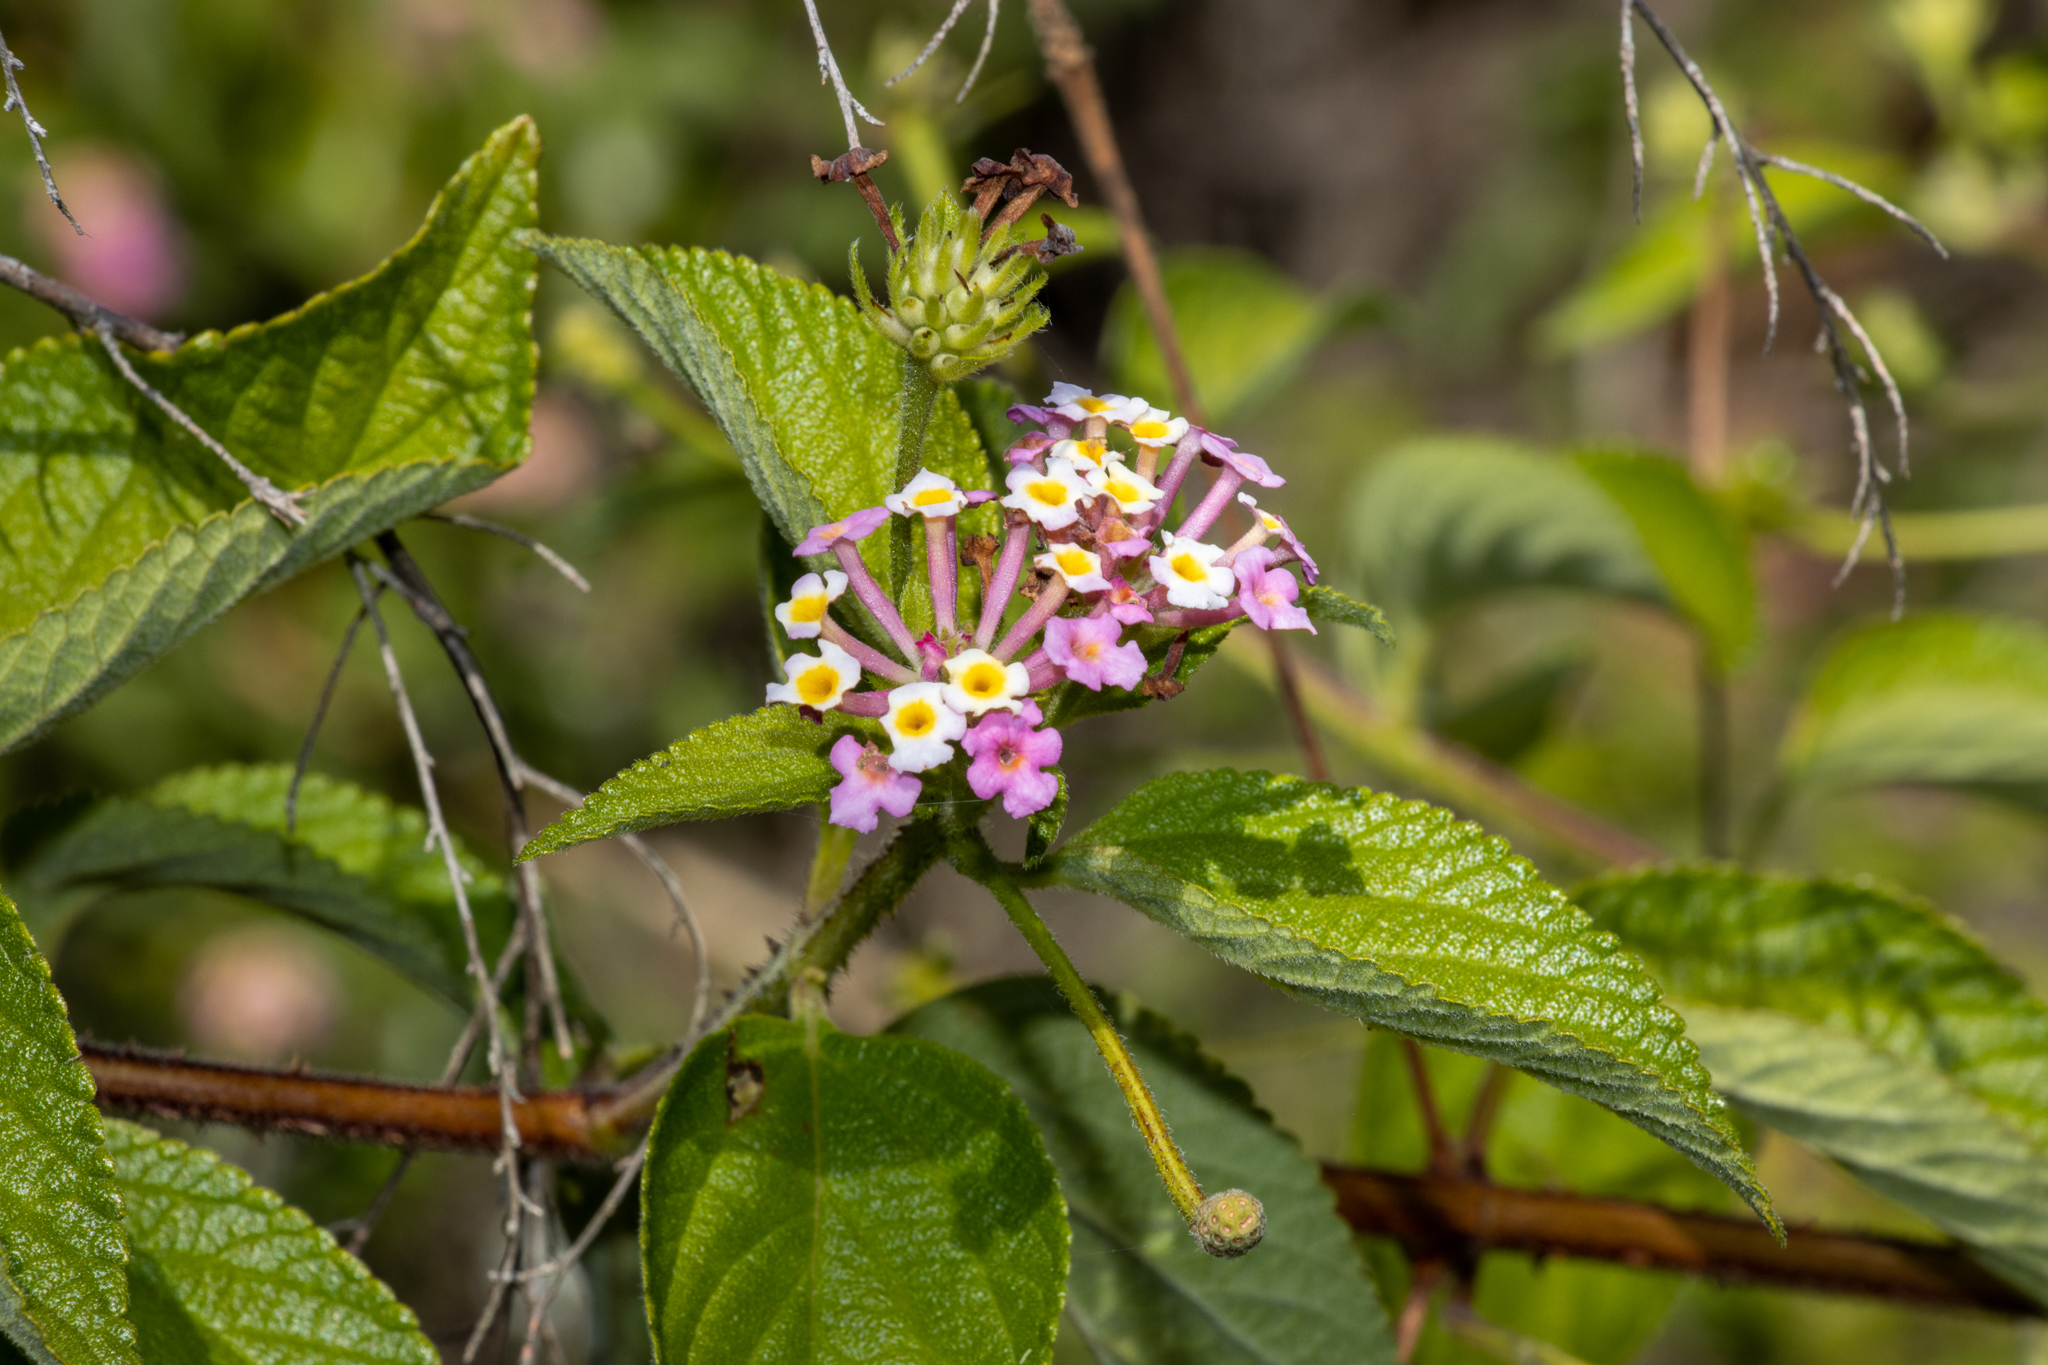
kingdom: Plantae
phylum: Tracheophyta
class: Magnoliopsida
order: Lamiales
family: Verbenaceae
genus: Lantana
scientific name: Lantana camara
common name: Lantana
